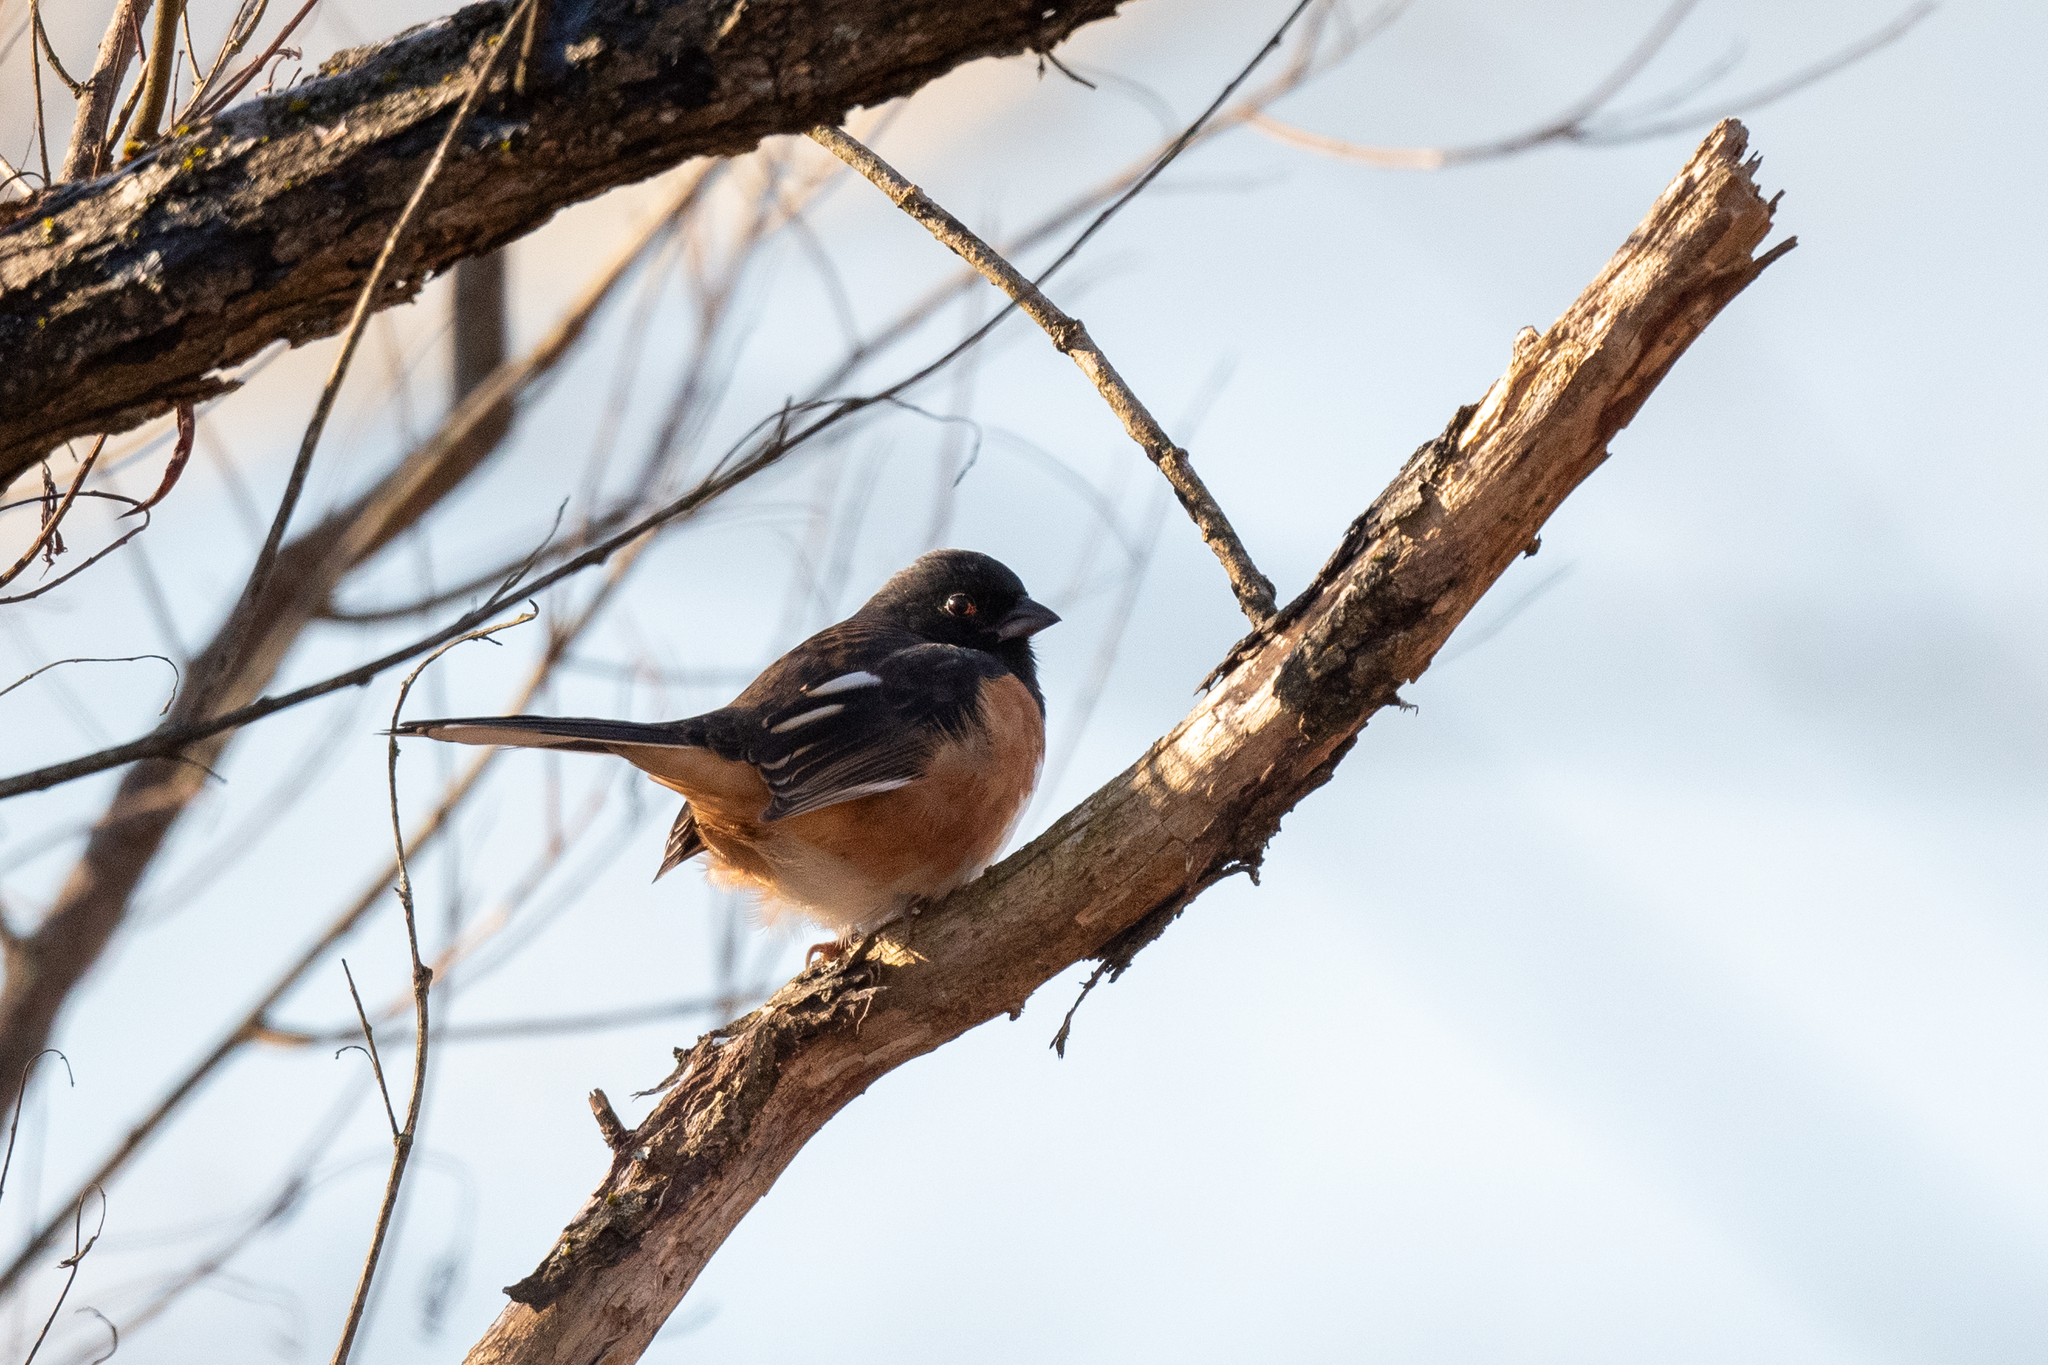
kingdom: Animalia
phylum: Chordata
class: Aves
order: Passeriformes
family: Passerellidae
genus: Pipilo
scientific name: Pipilo erythrophthalmus
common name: Eastern towhee
